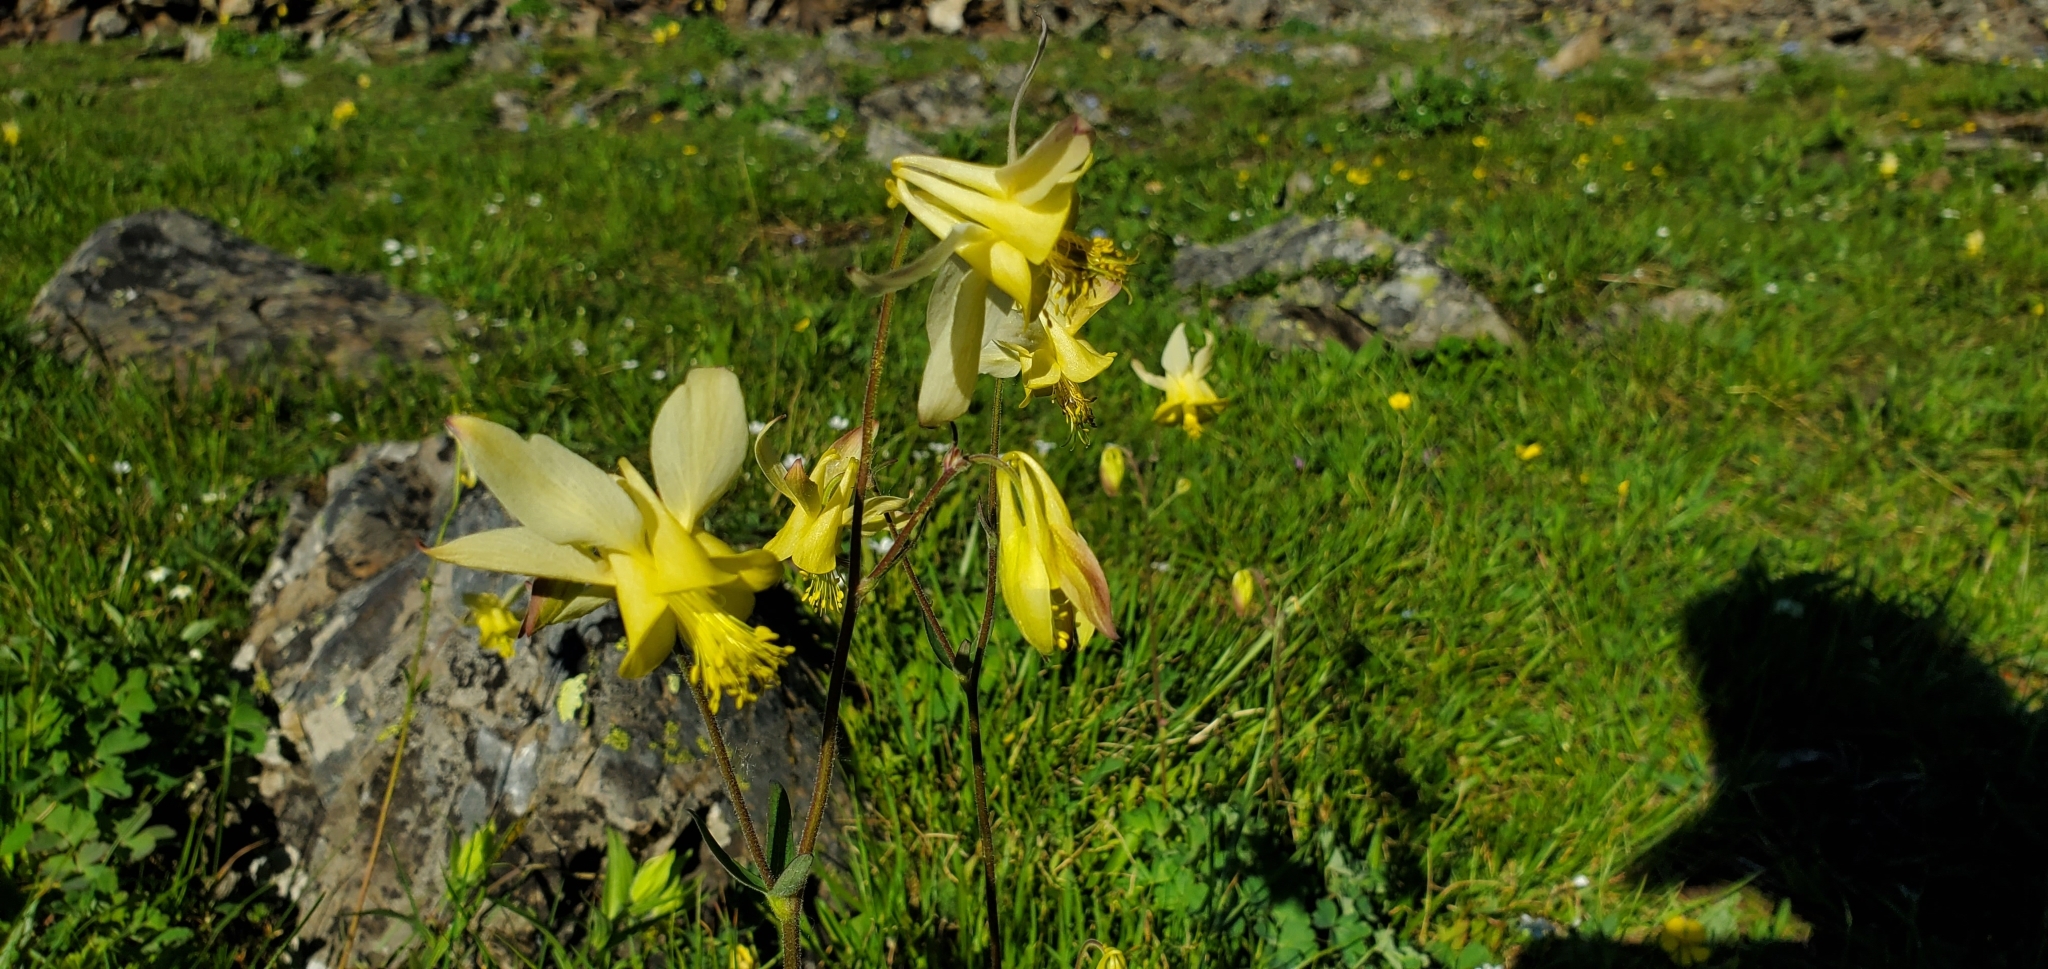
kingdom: Plantae
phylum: Tracheophyta
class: Magnoliopsida
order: Ranunculales
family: Ranunculaceae
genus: Aquilegia
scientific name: Aquilegia flavescens
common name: Yellow columbine
